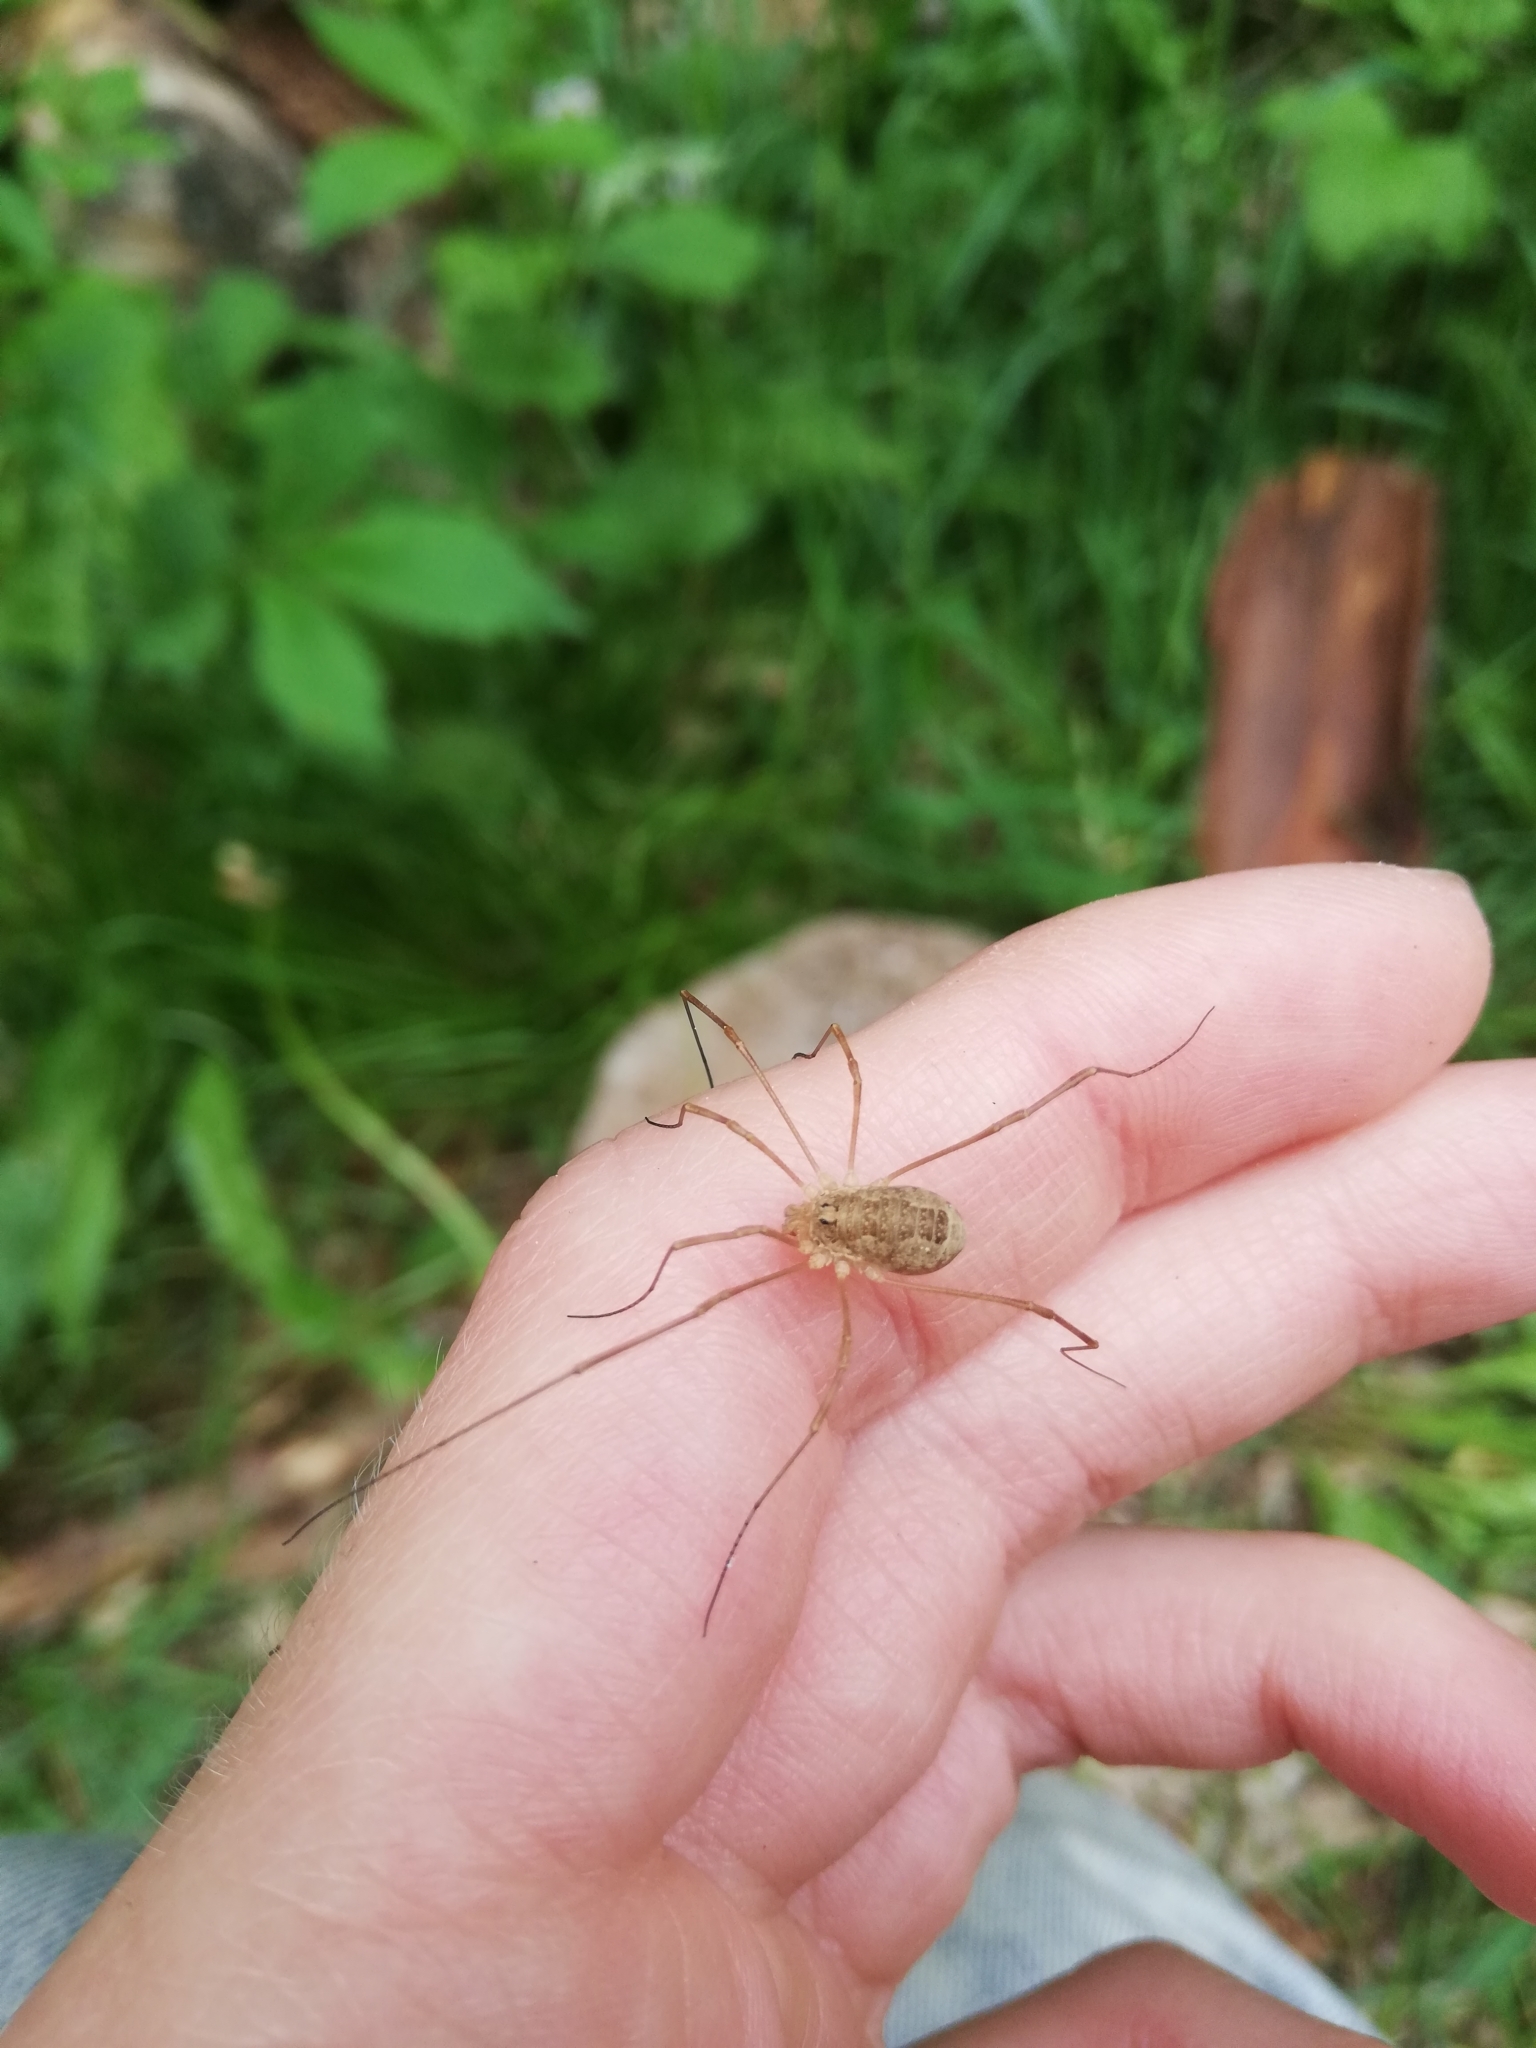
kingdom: Animalia
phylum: Arthropoda
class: Arachnida
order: Opiliones
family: Phalangiidae
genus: Rilaena
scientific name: Rilaena triangularis
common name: Spring harvestman
